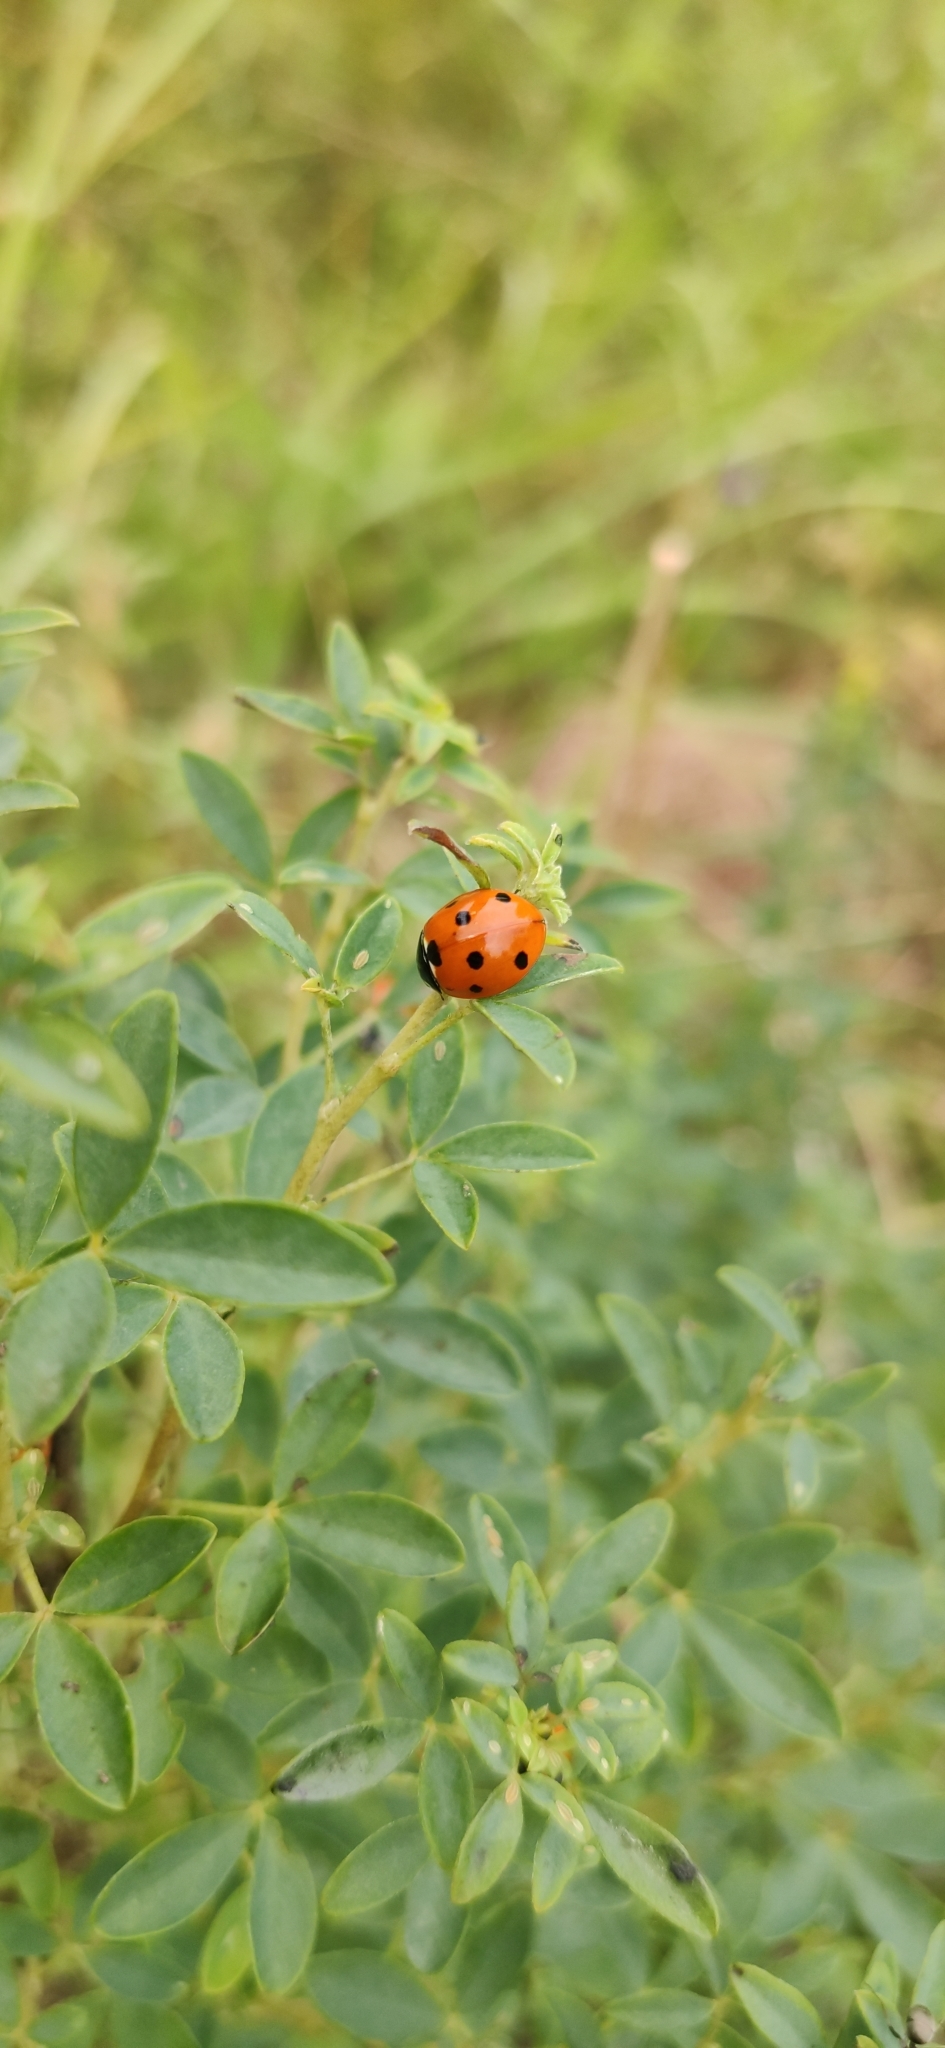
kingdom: Animalia
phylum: Arthropoda
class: Insecta
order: Coleoptera
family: Coccinellidae
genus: Coccinella
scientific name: Coccinella septempunctata
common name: Sevenspotted lady beetle
